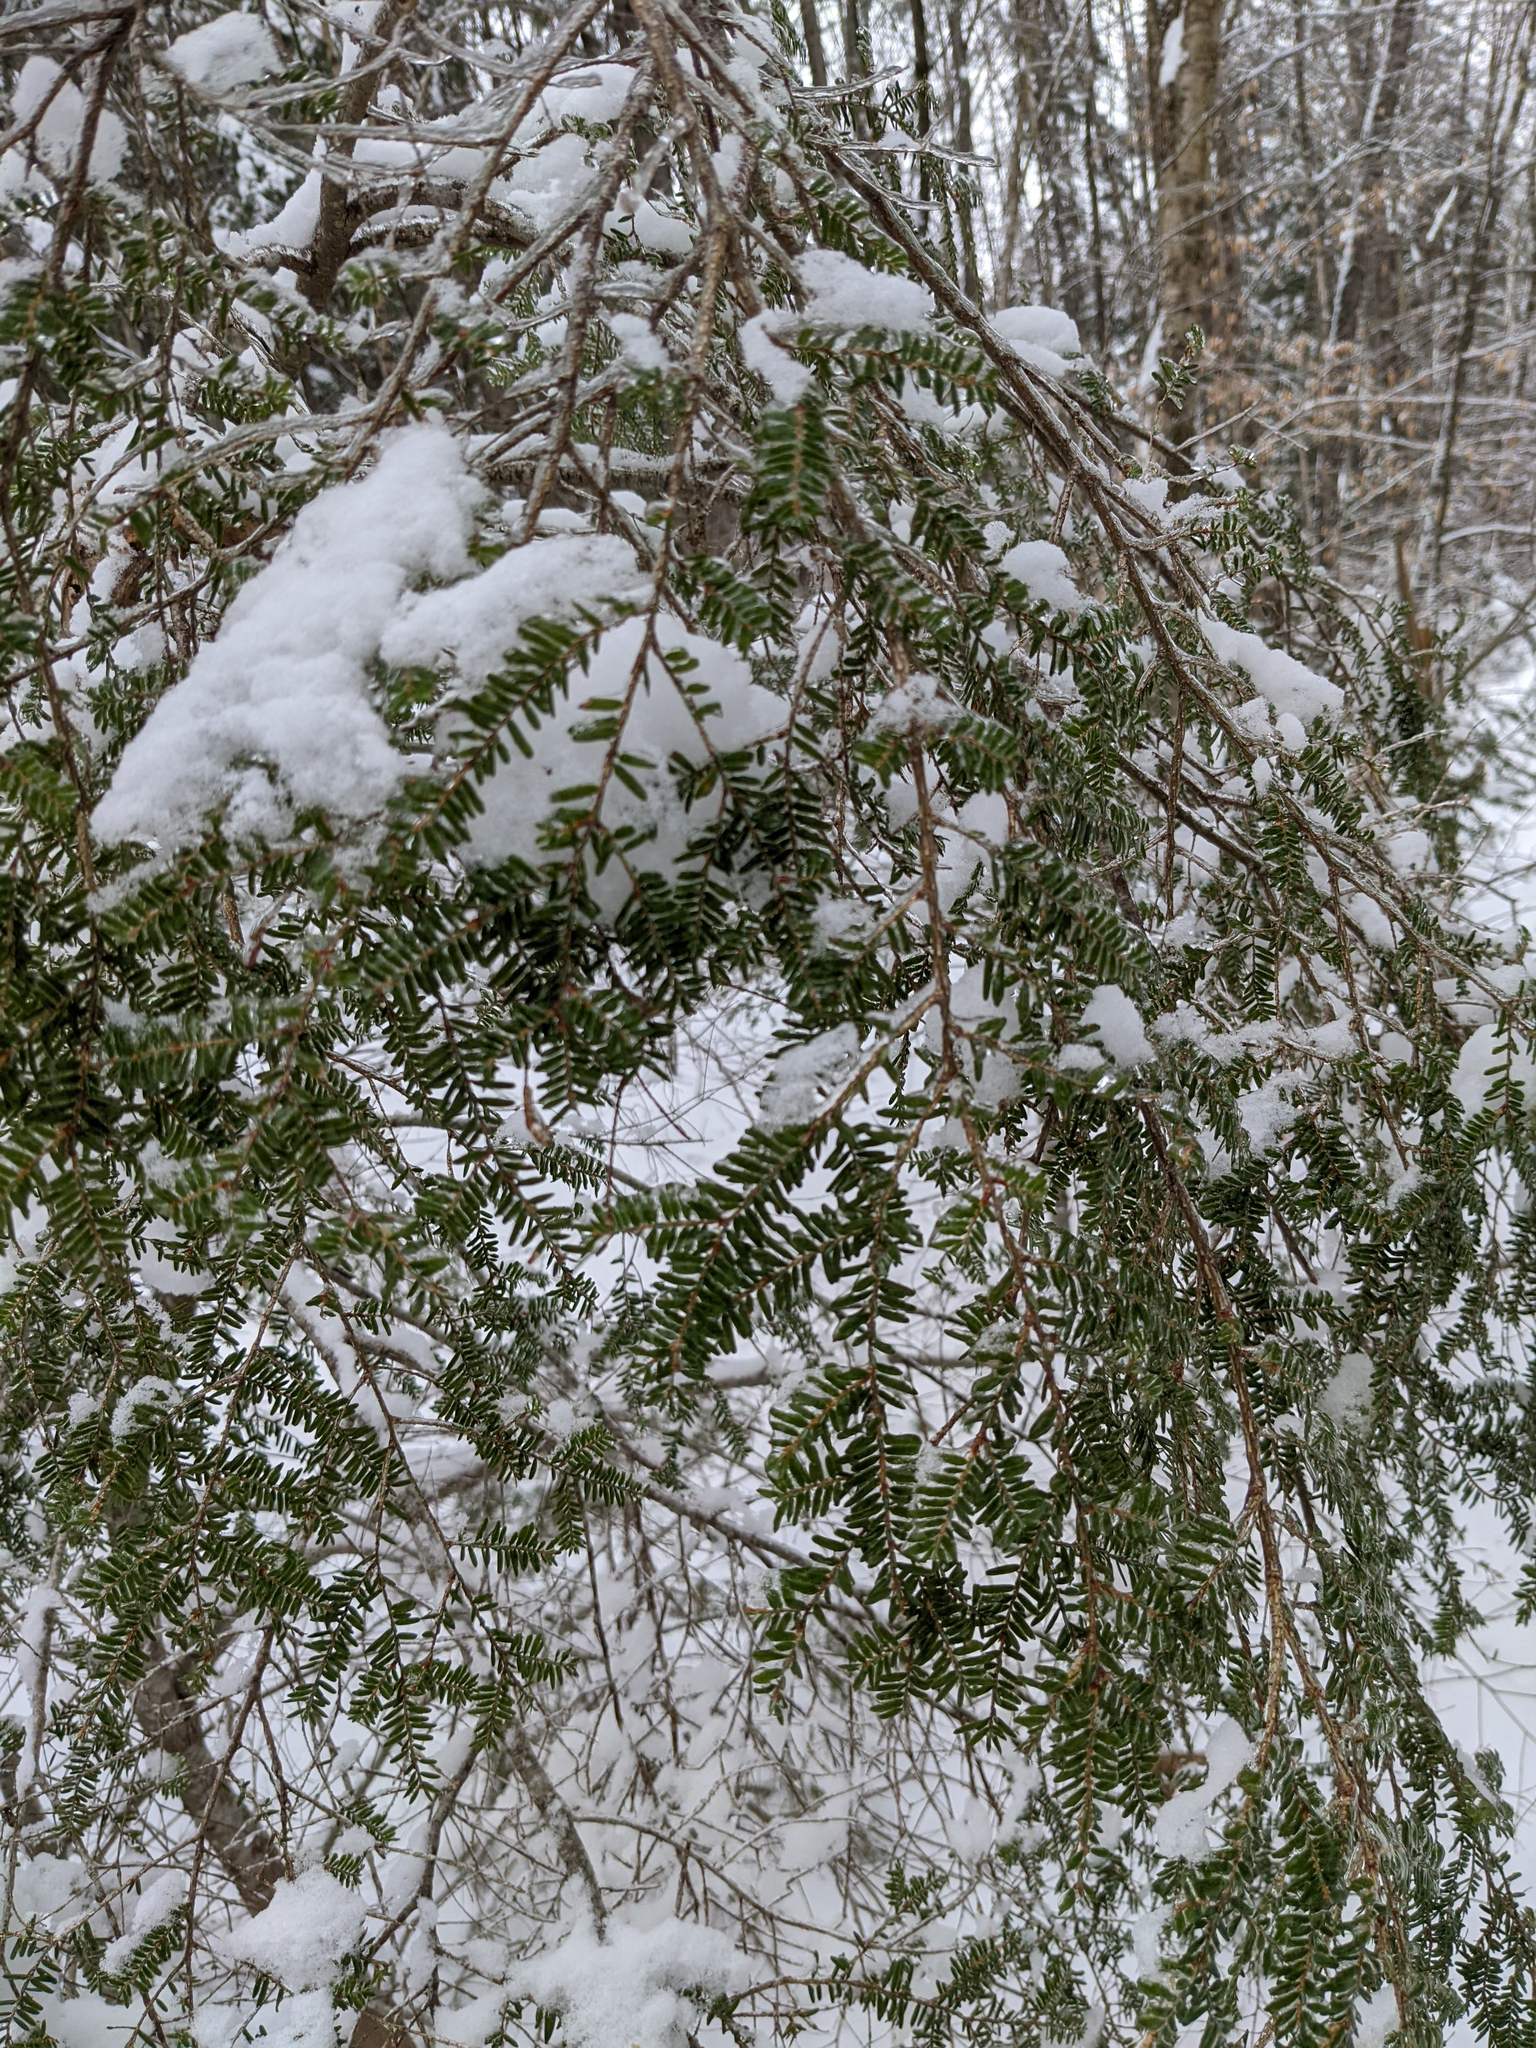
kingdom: Plantae
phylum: Tracheophyta
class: Pinopsida
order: Pinales
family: Pinaceae
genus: Tsuga
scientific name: Tsuga canadensis
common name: Eastern hemlock
